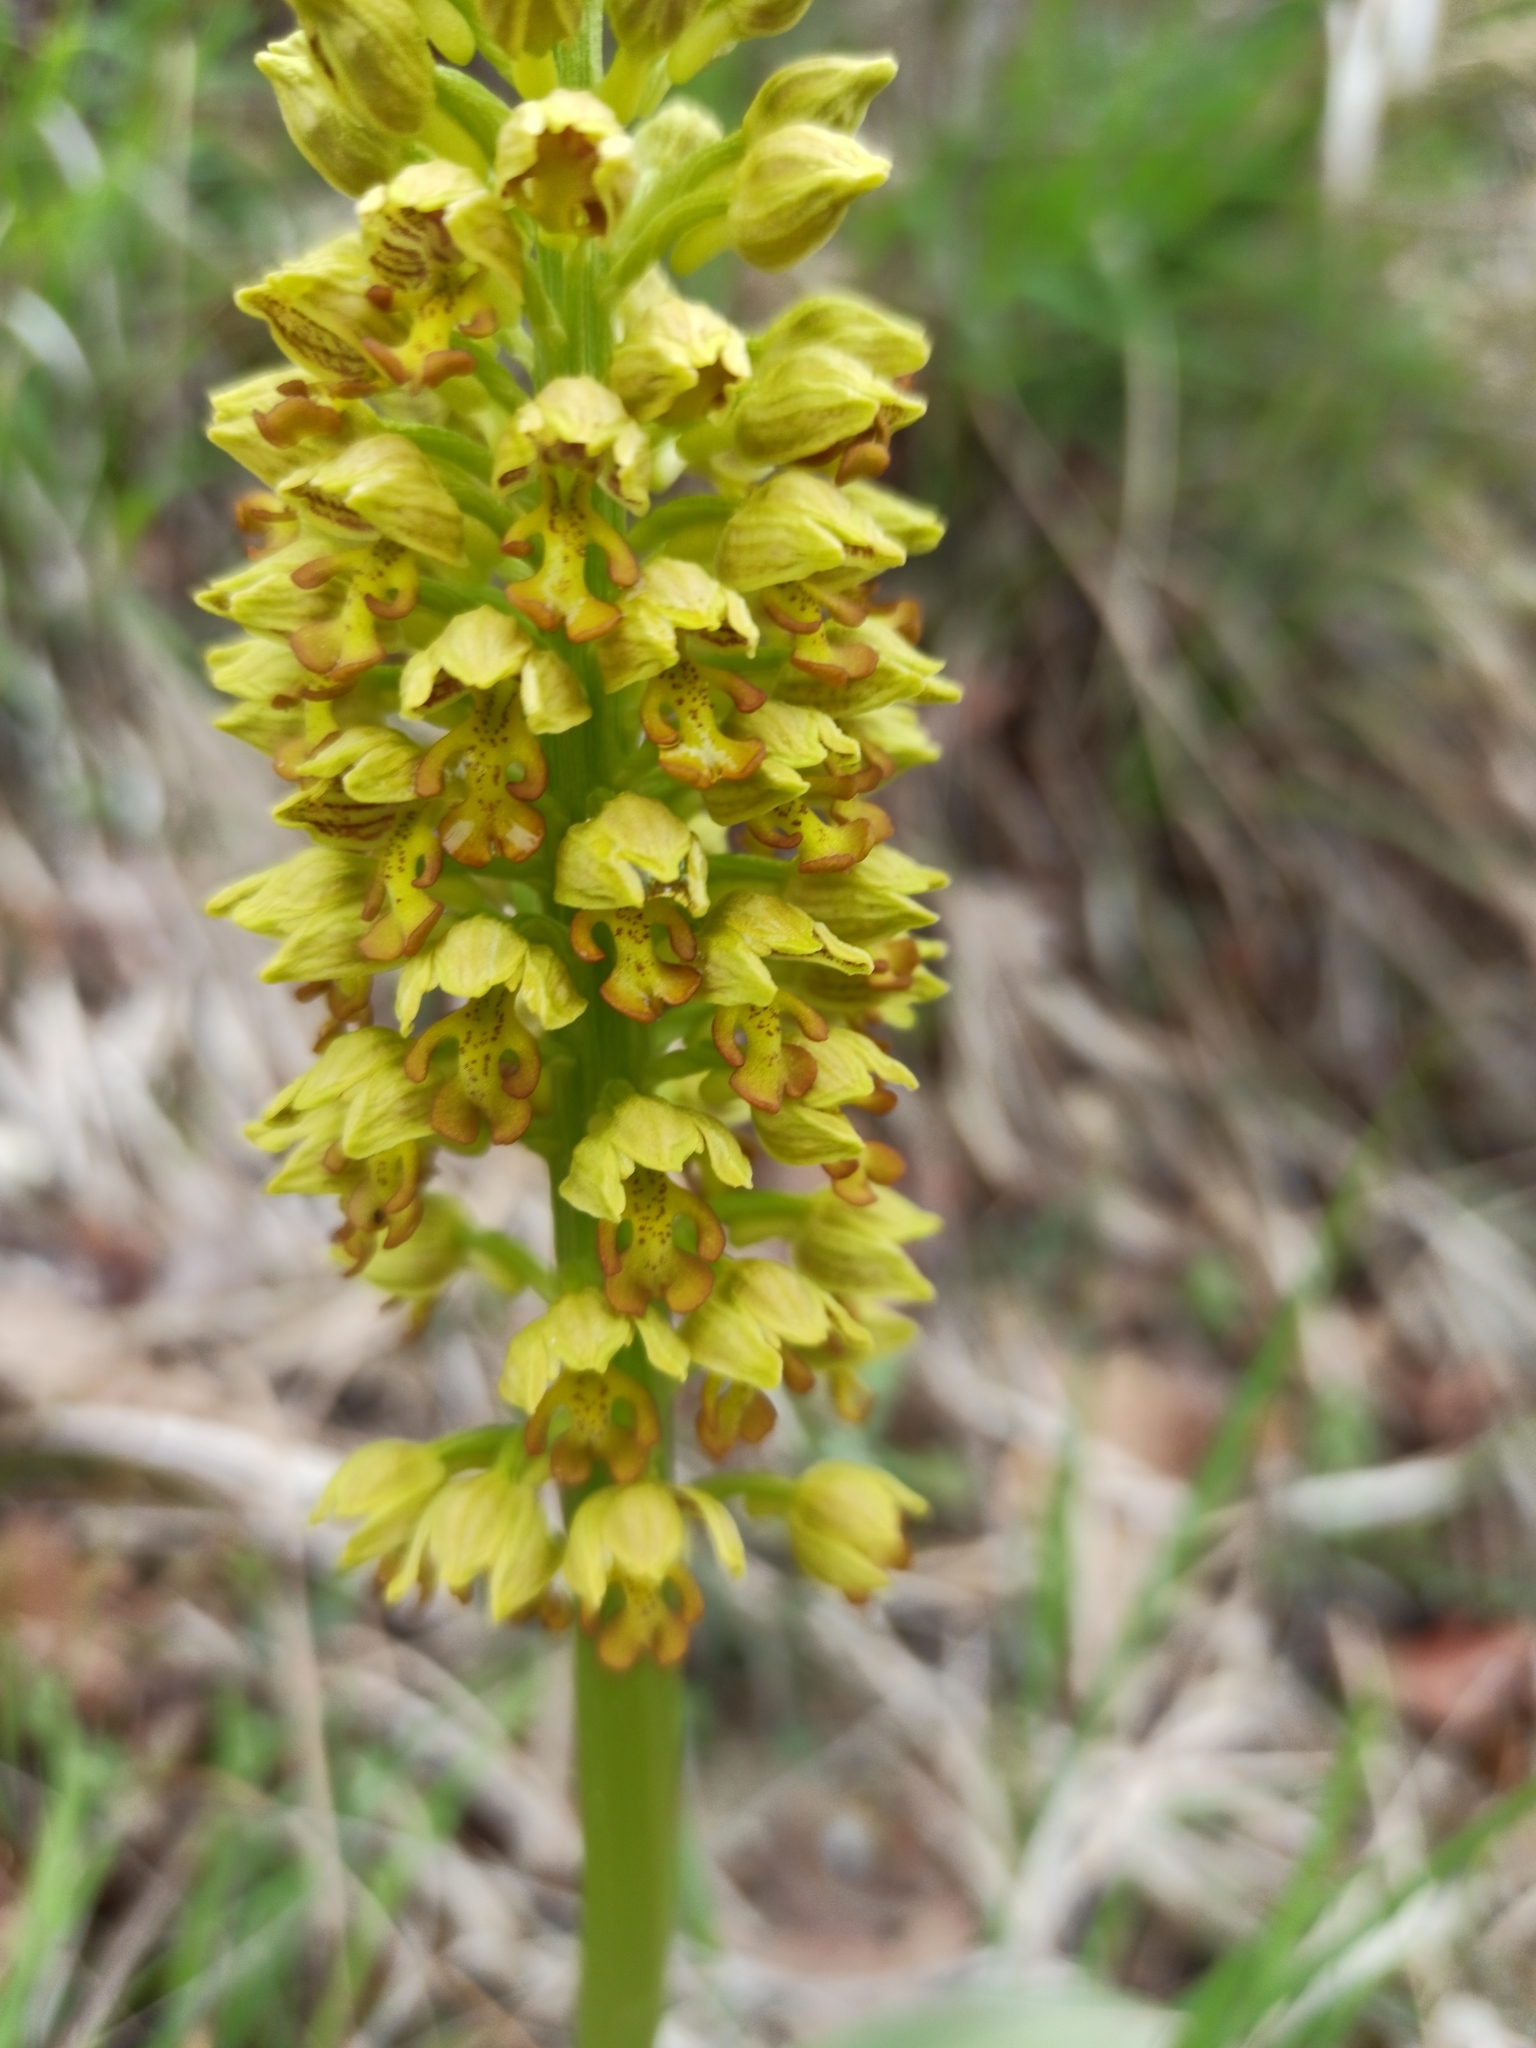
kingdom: Plantae
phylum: Tracheophyta
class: Liliopsida
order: Asparagales
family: Orchidaceae
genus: Orchis
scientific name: Orchis punctulata
